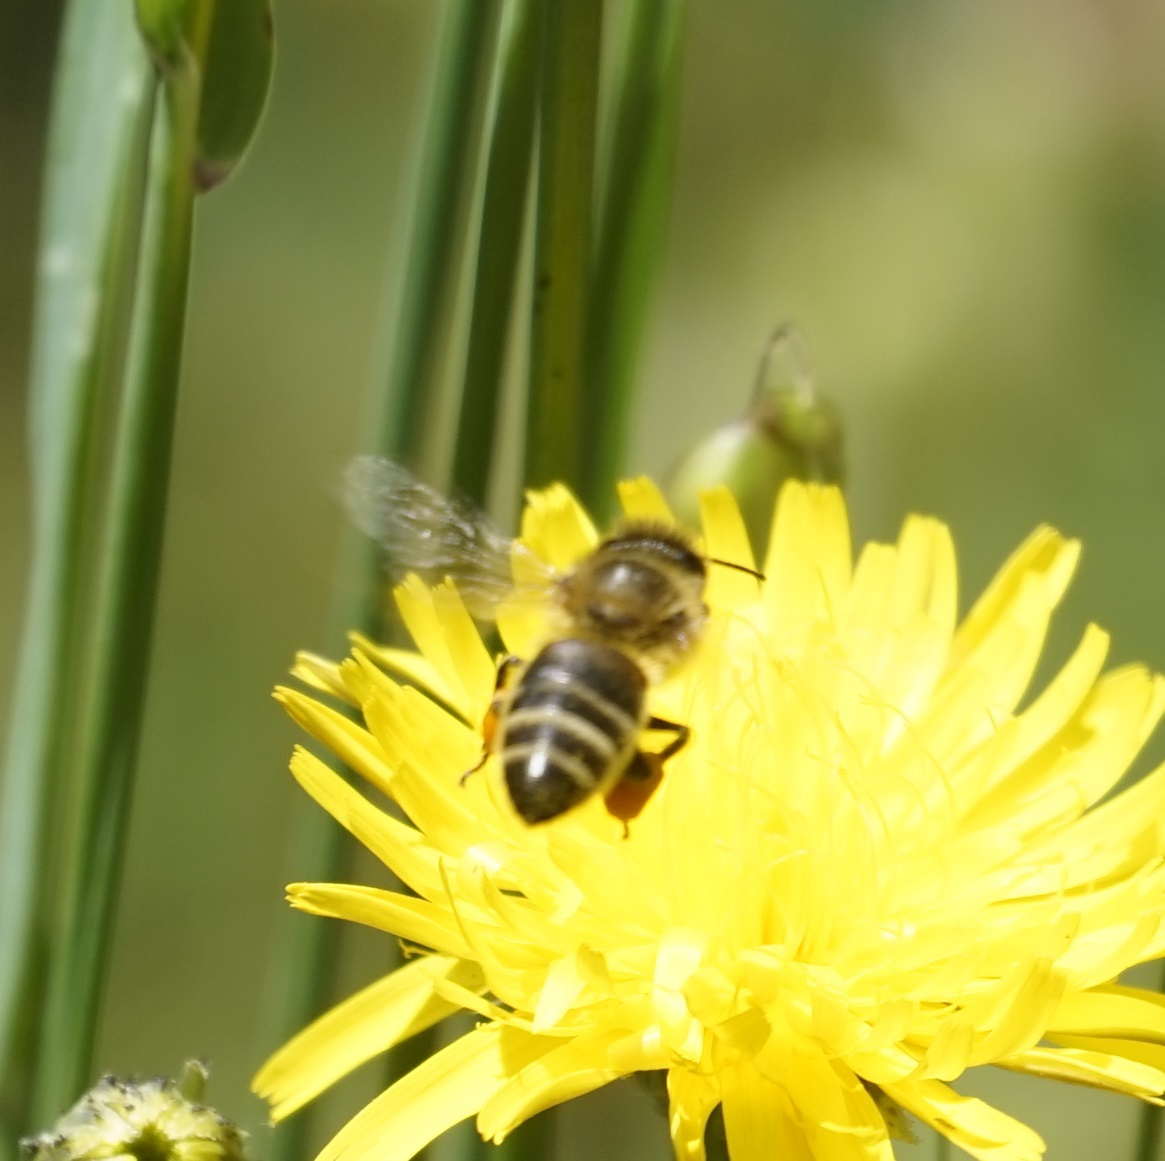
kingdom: Animalia
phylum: Arthropoda
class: Insecta
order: Hymenoptera
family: Apidae
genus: Apis
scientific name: Apis mellifera
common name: Honey bee
